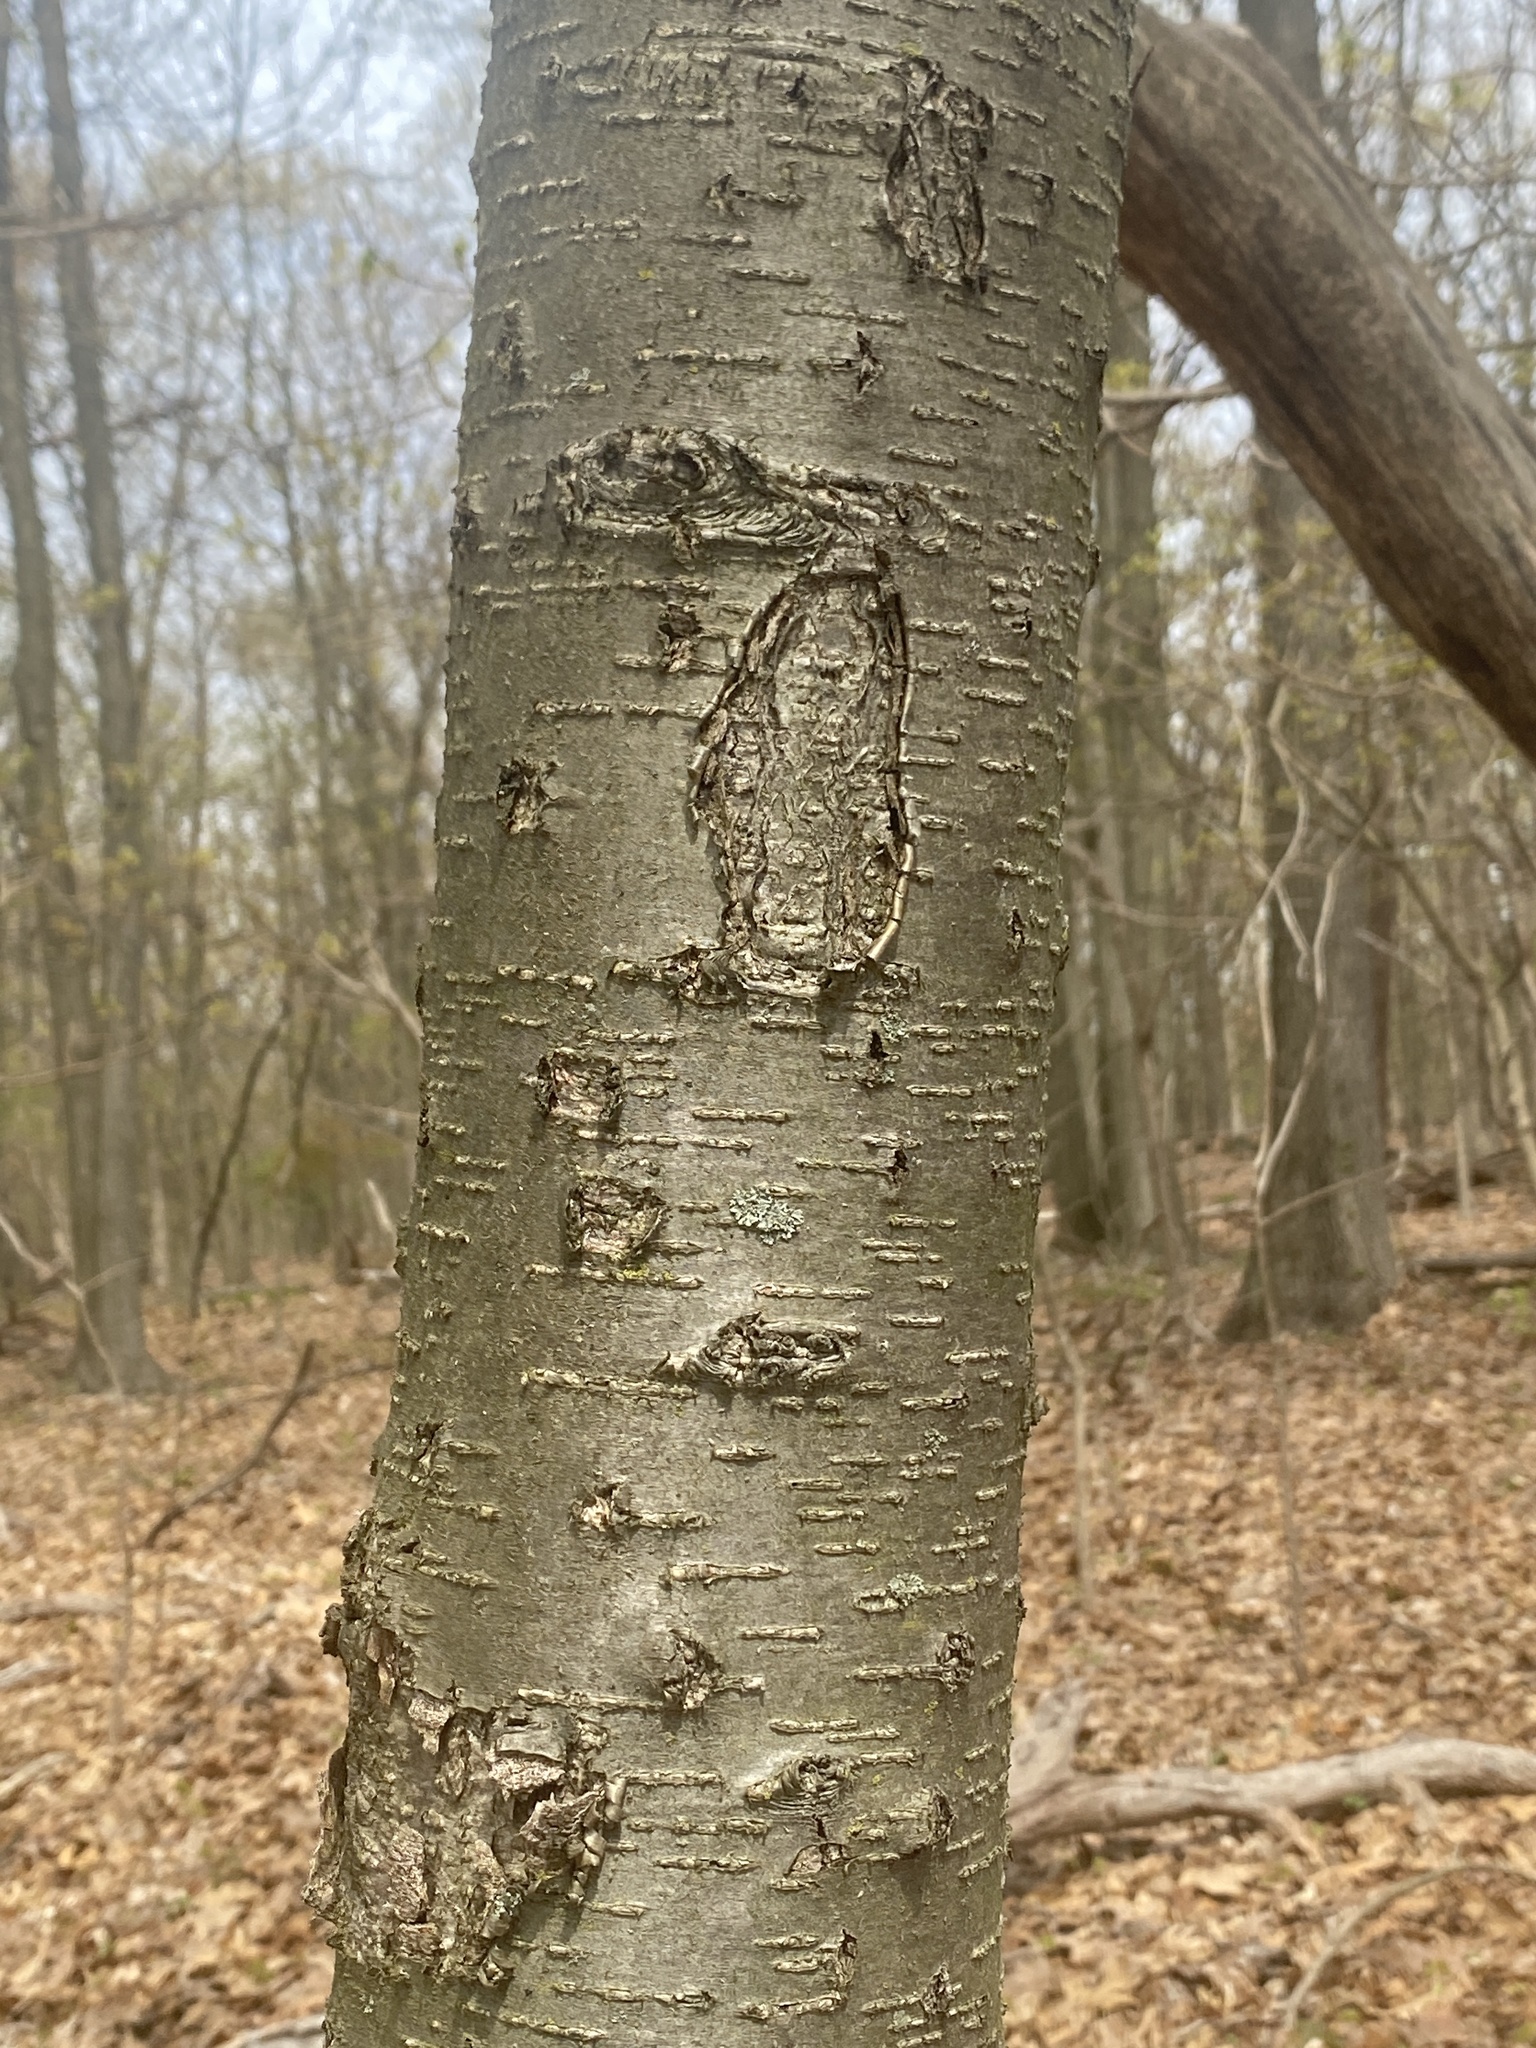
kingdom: Plantae
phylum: Tracheophyta
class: Magnoliopsida
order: Fagales
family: Betulaceae
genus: Betula
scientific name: Betula lenta
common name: Black birch
